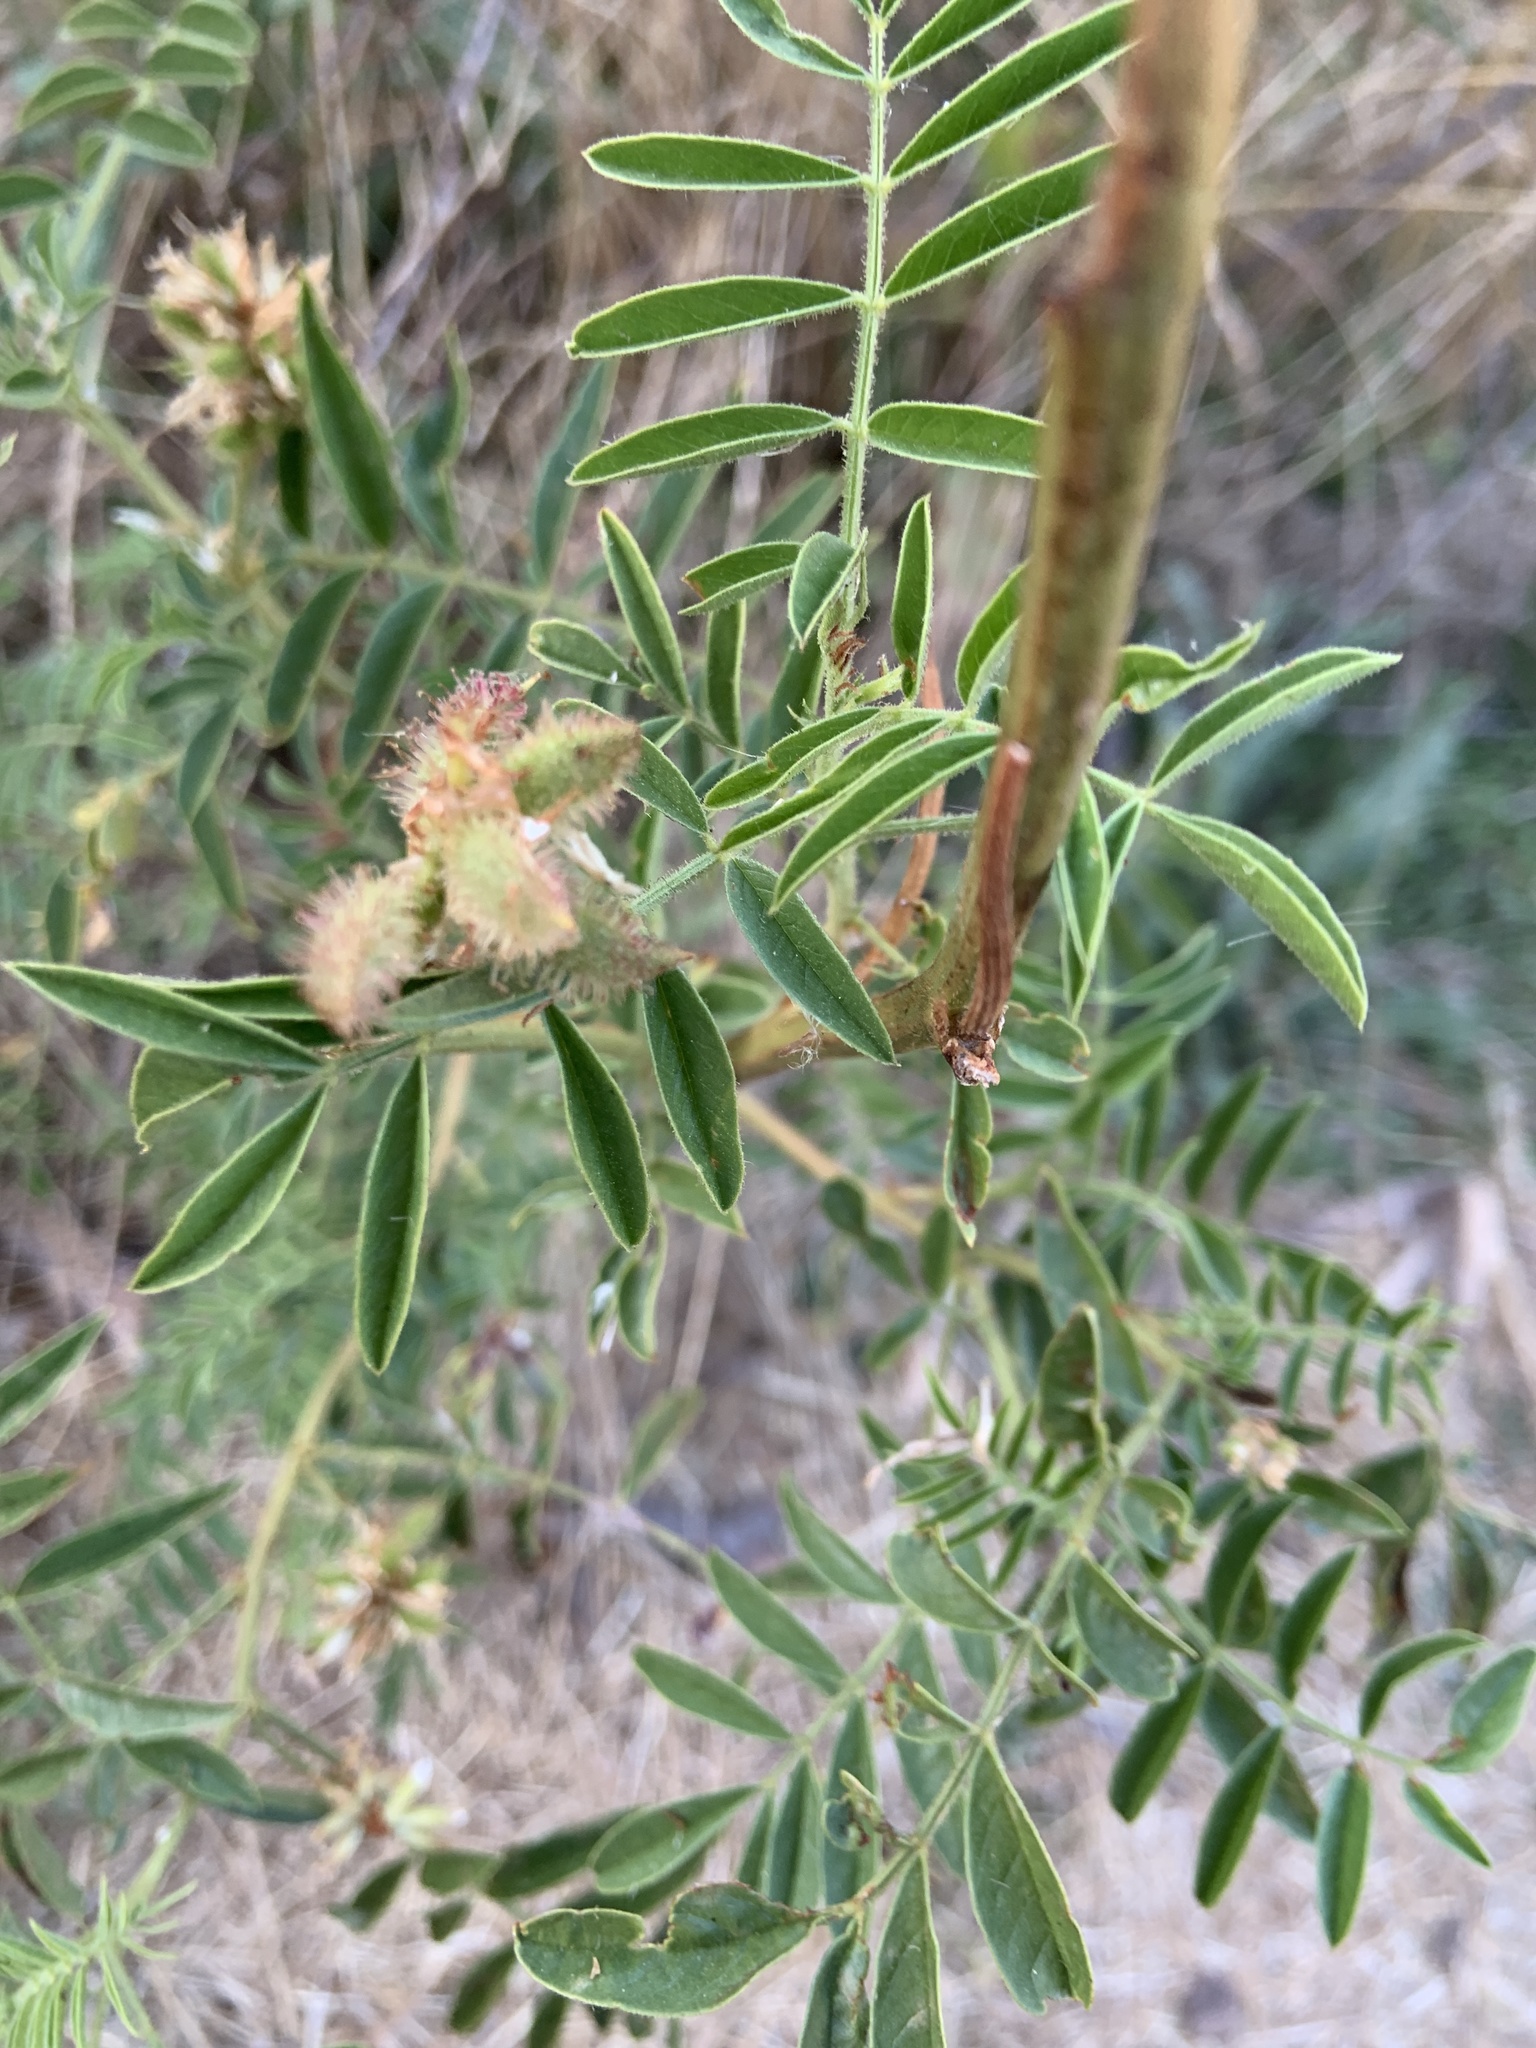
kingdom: Plantae
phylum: Tracheophyta
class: Magnoliopsida
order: Fabales
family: Fabaceae
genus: Glycyrrhiza
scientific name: Glycyrrhiza lepidota
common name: American liquorice
